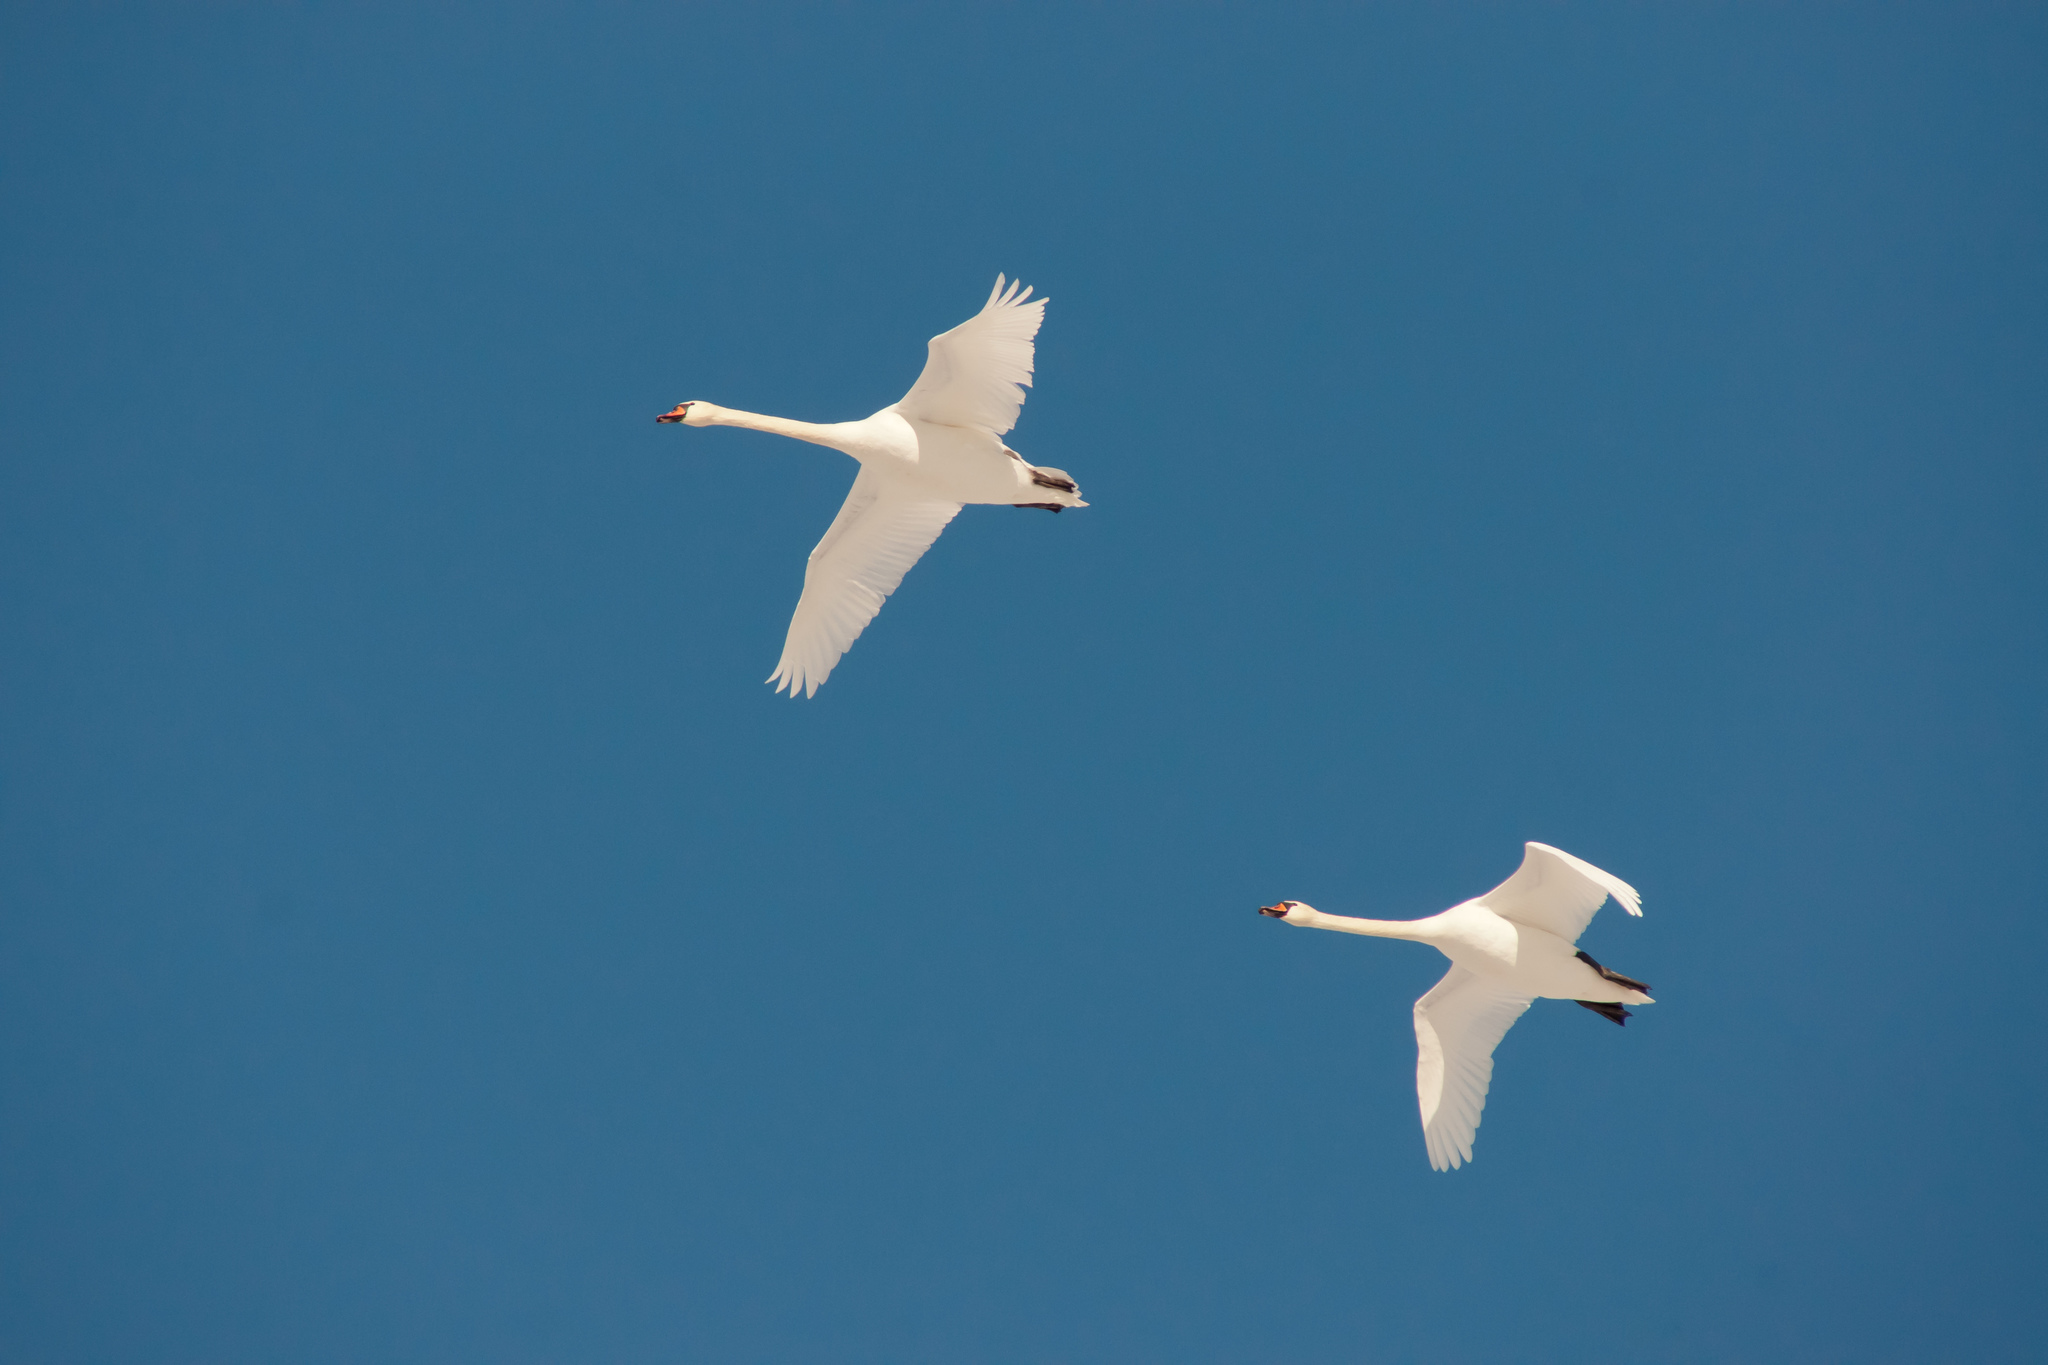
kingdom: Animalia
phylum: Chordata
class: Aves
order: Anseriformes
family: Anatidae
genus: Cygnus
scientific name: Cygnus olor
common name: Mute swan
